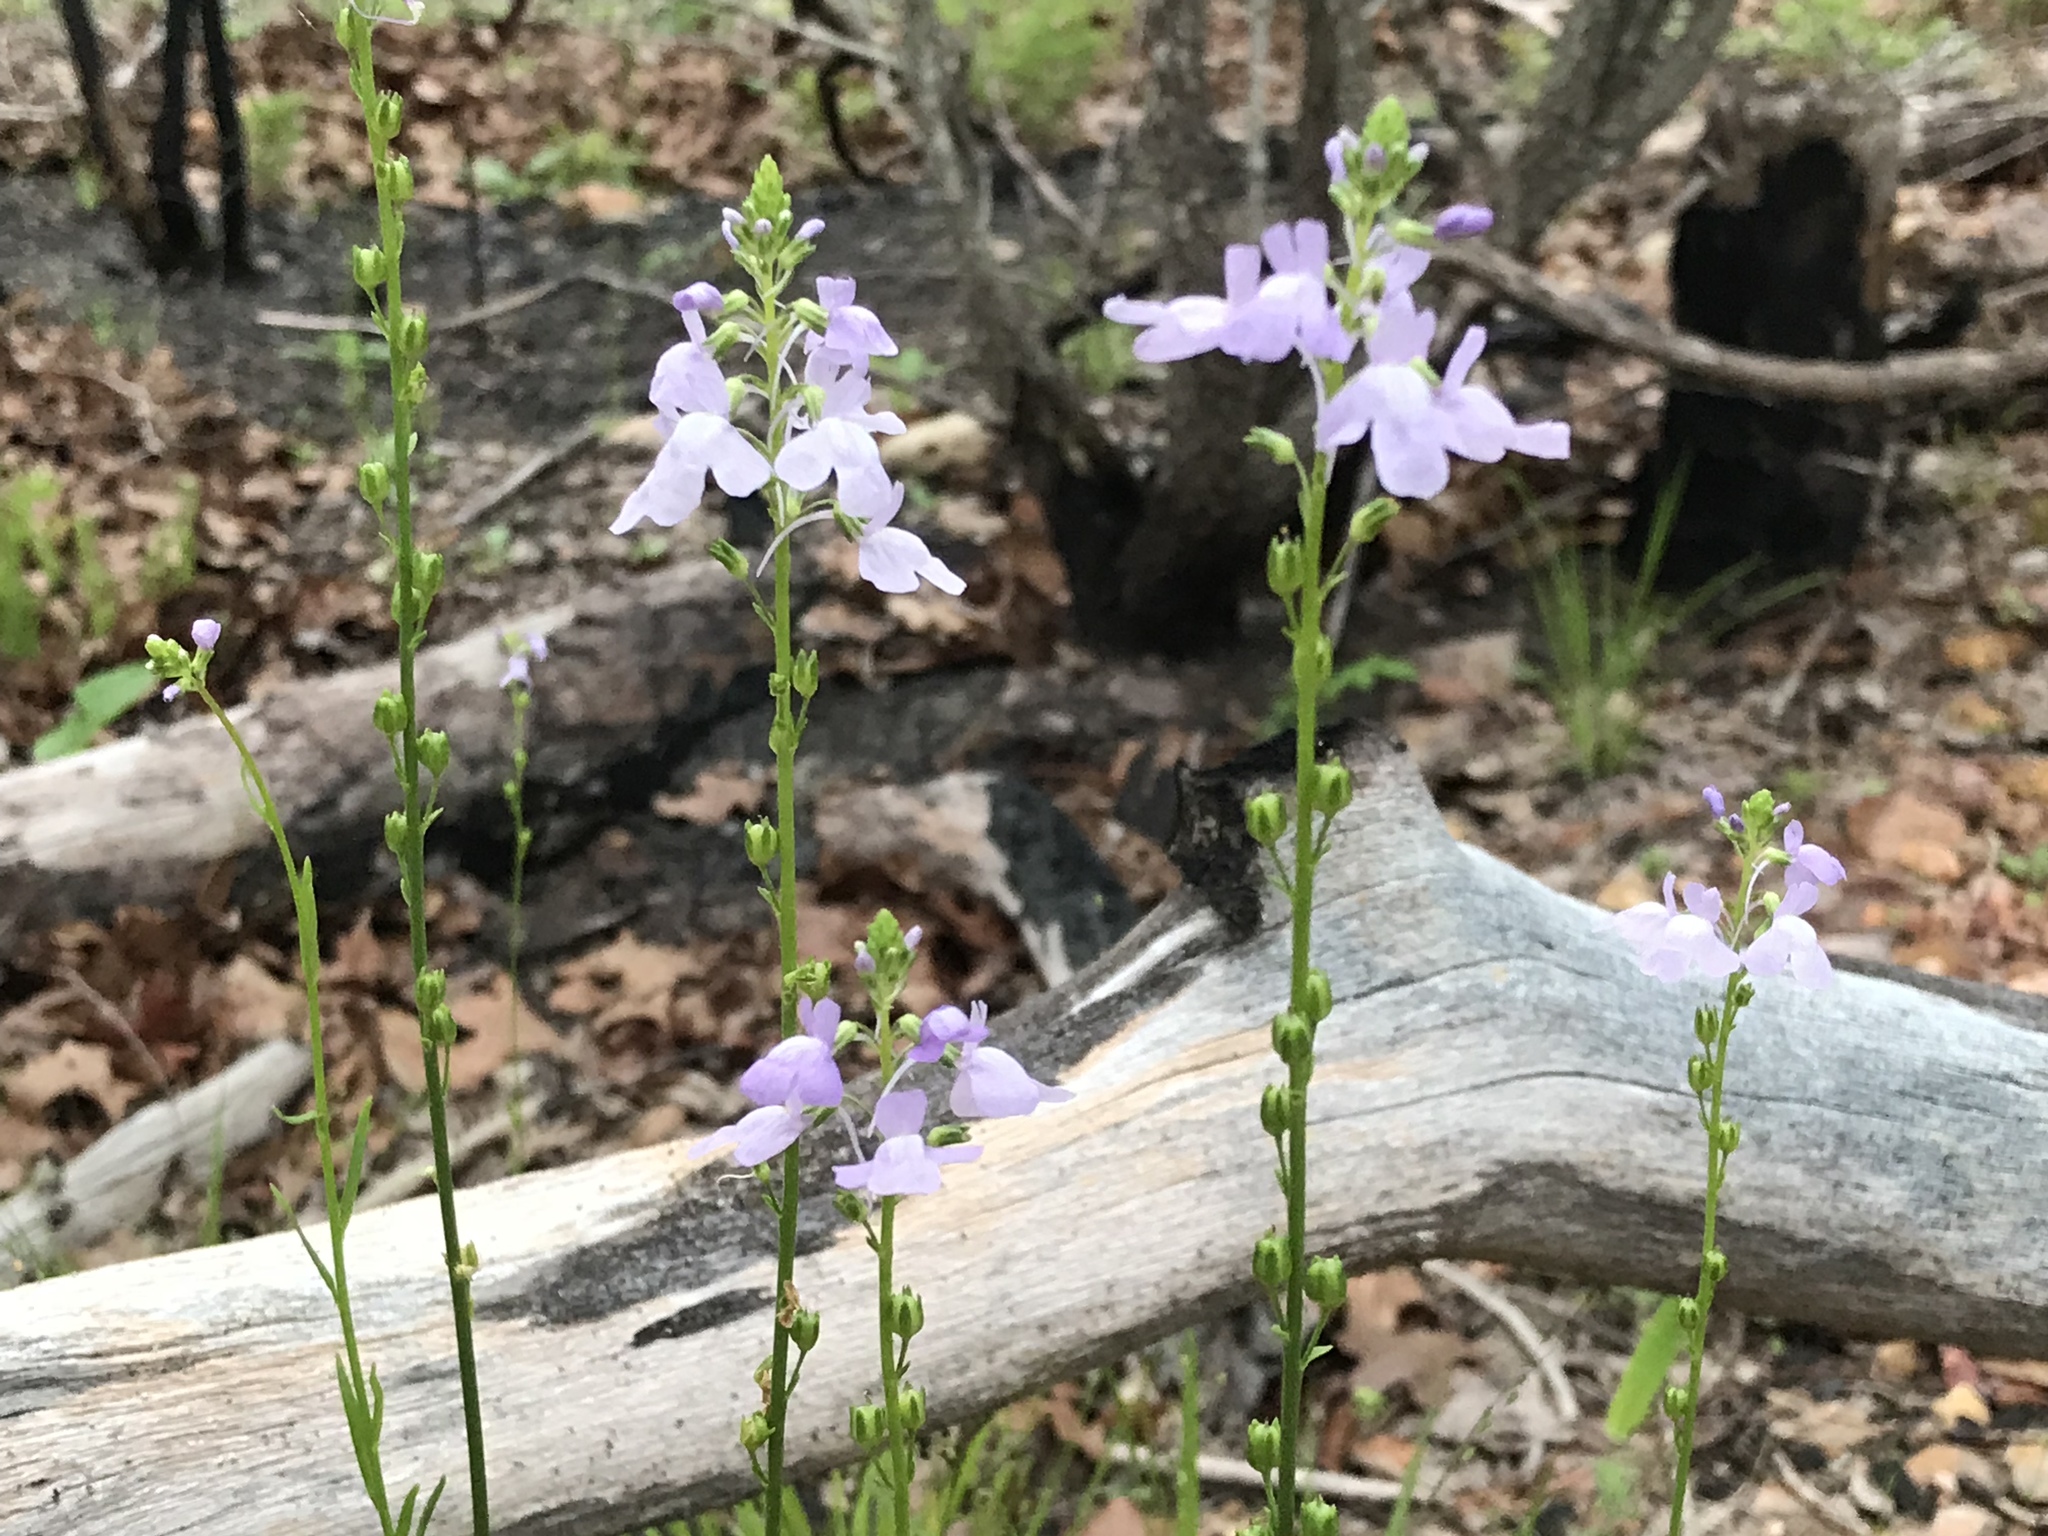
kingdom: Plantae
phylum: Tracheophyta
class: Magnoliopsida
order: Lamiales
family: Plantaginaceae
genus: Nuttallanthus
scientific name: Nuttallanthus texanus
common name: Texas toadflax
